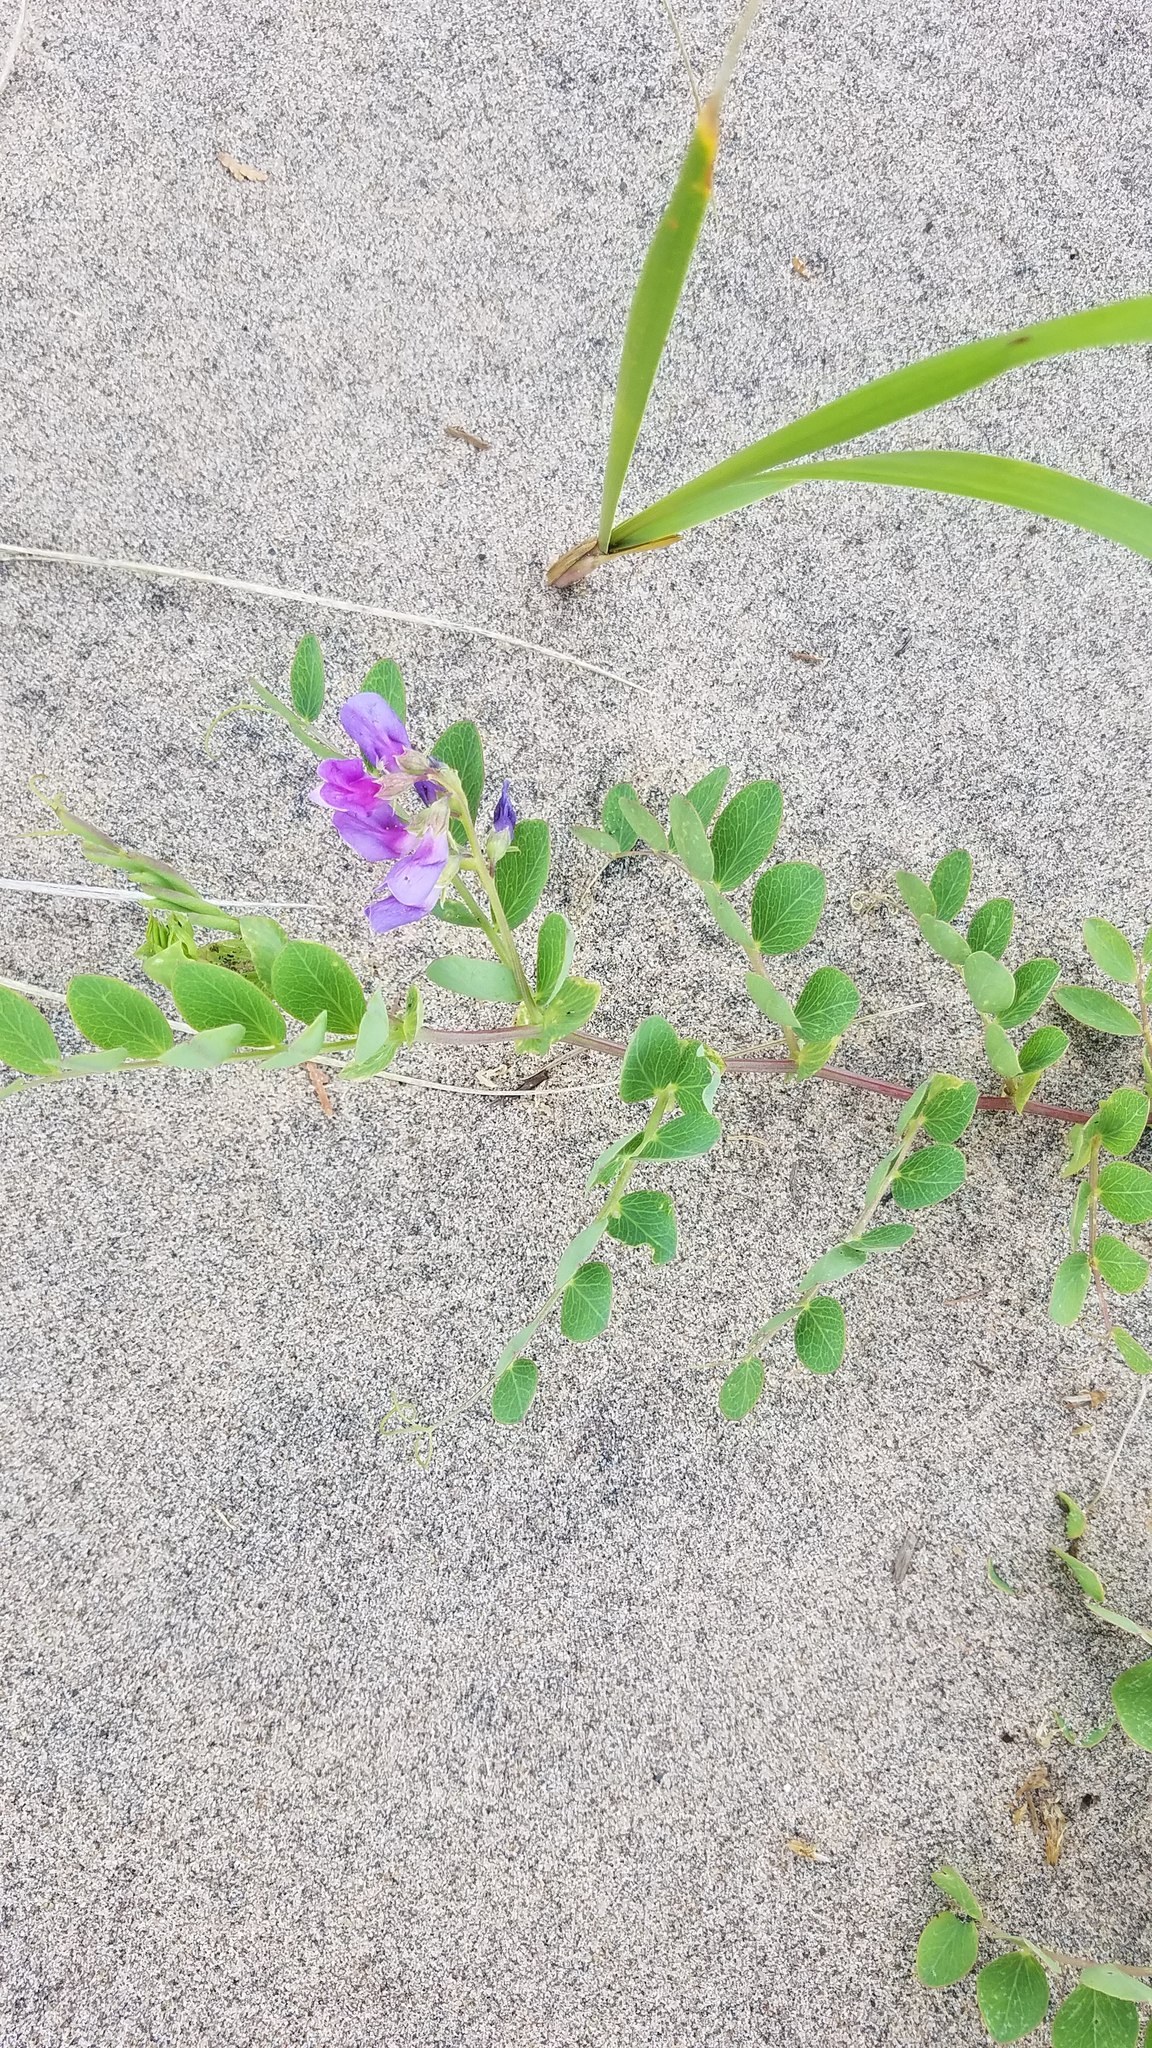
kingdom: Plantae
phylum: Tracheophyta
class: Magnoliopsida
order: Fabales
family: Fabaceae
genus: Lathyrus
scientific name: Lathyrus japonicus
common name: Sea pea
